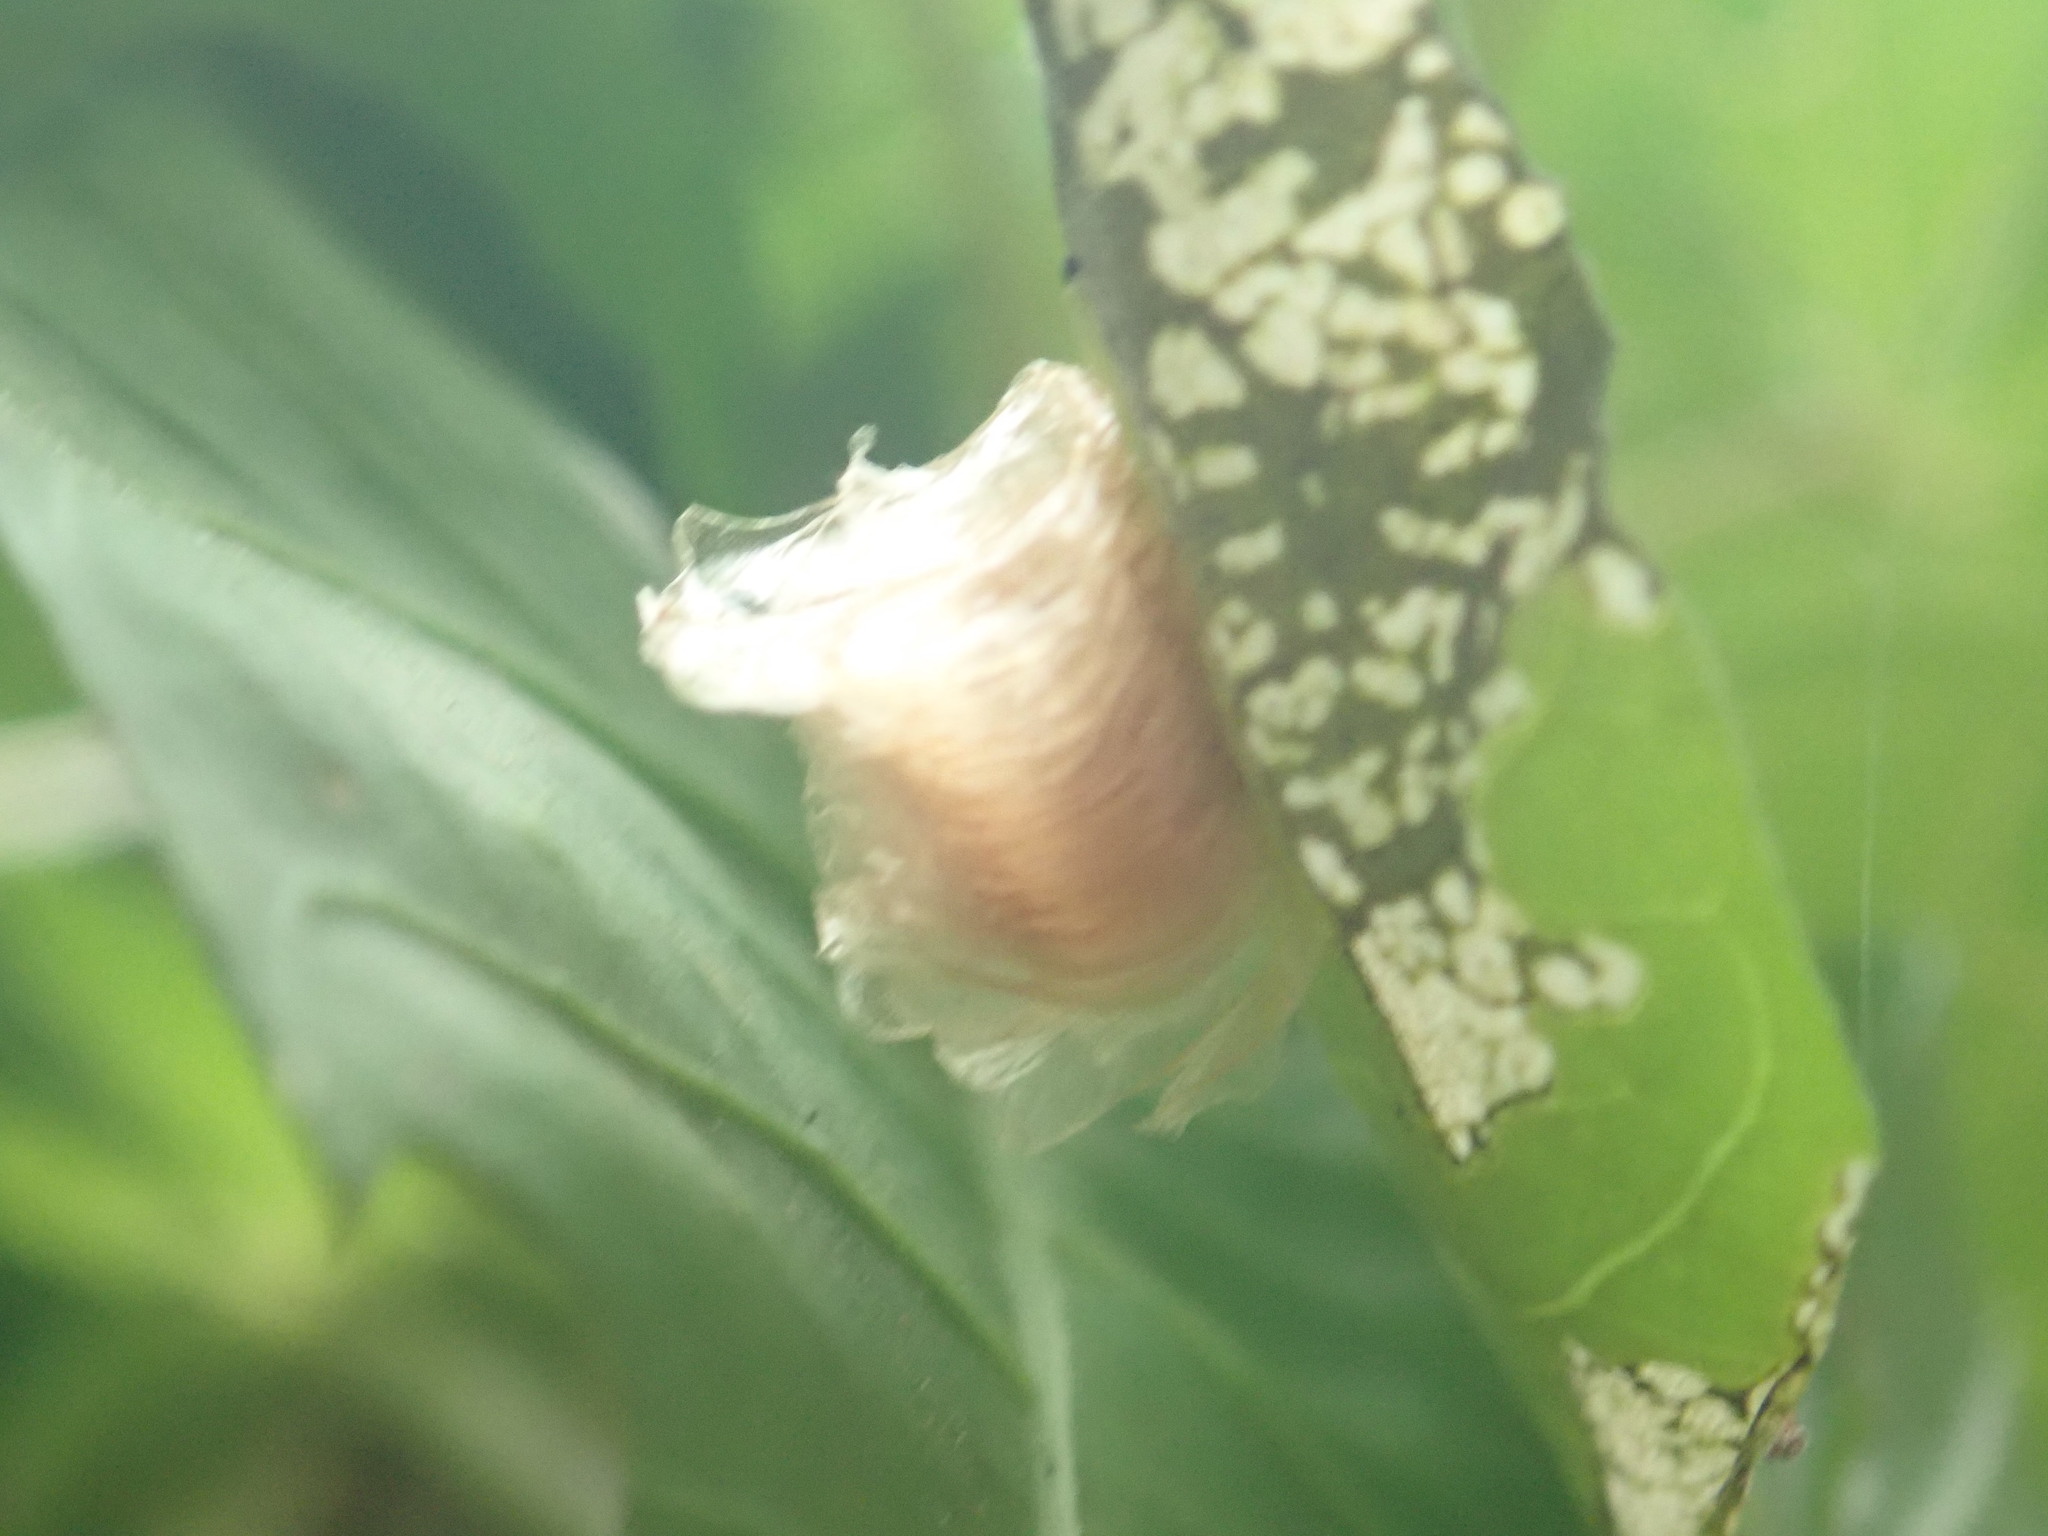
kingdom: Animalia
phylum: Arthropoda
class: Insecta
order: Coleoptera
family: Chrysomelidae
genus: Aspidimorpha
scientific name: Aspidimorpha miliaris
